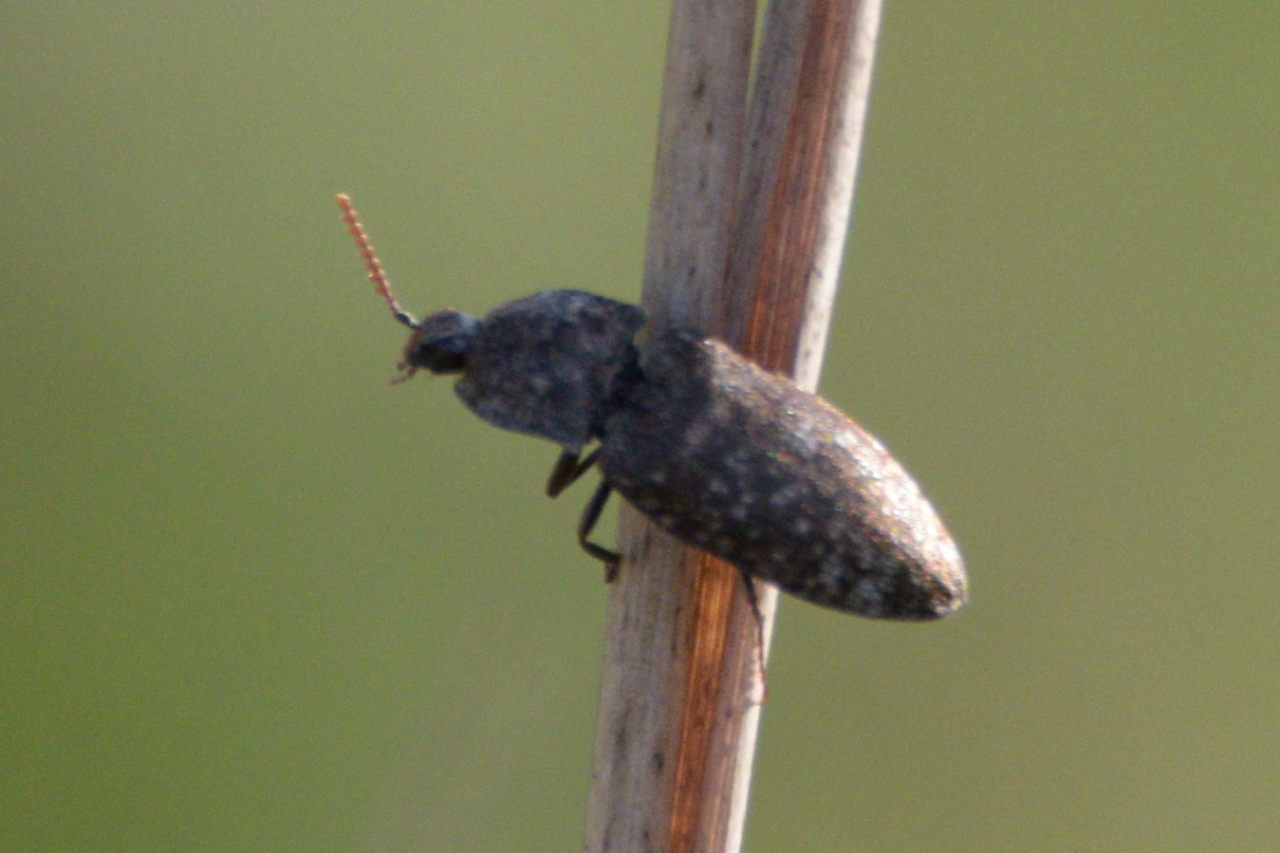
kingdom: Animalia
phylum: Arthropoda
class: Insecta
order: Coleoptera
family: Elateridae
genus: Agrypnus
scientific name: Agrypnus murinus
